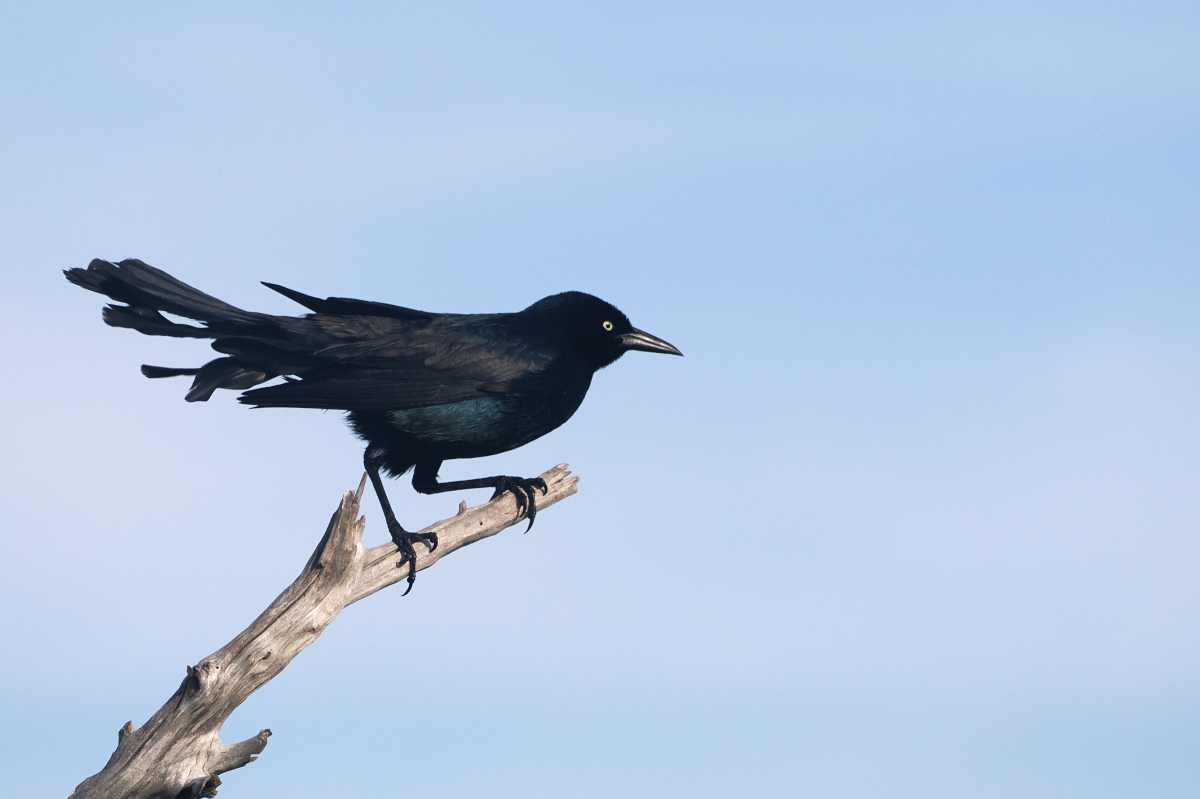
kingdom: Animalia
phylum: Chordata
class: Aves
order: Passeriformes
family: Icteridae
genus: Quiscalus
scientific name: Quiscalus major
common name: Boat-tailed grackle
